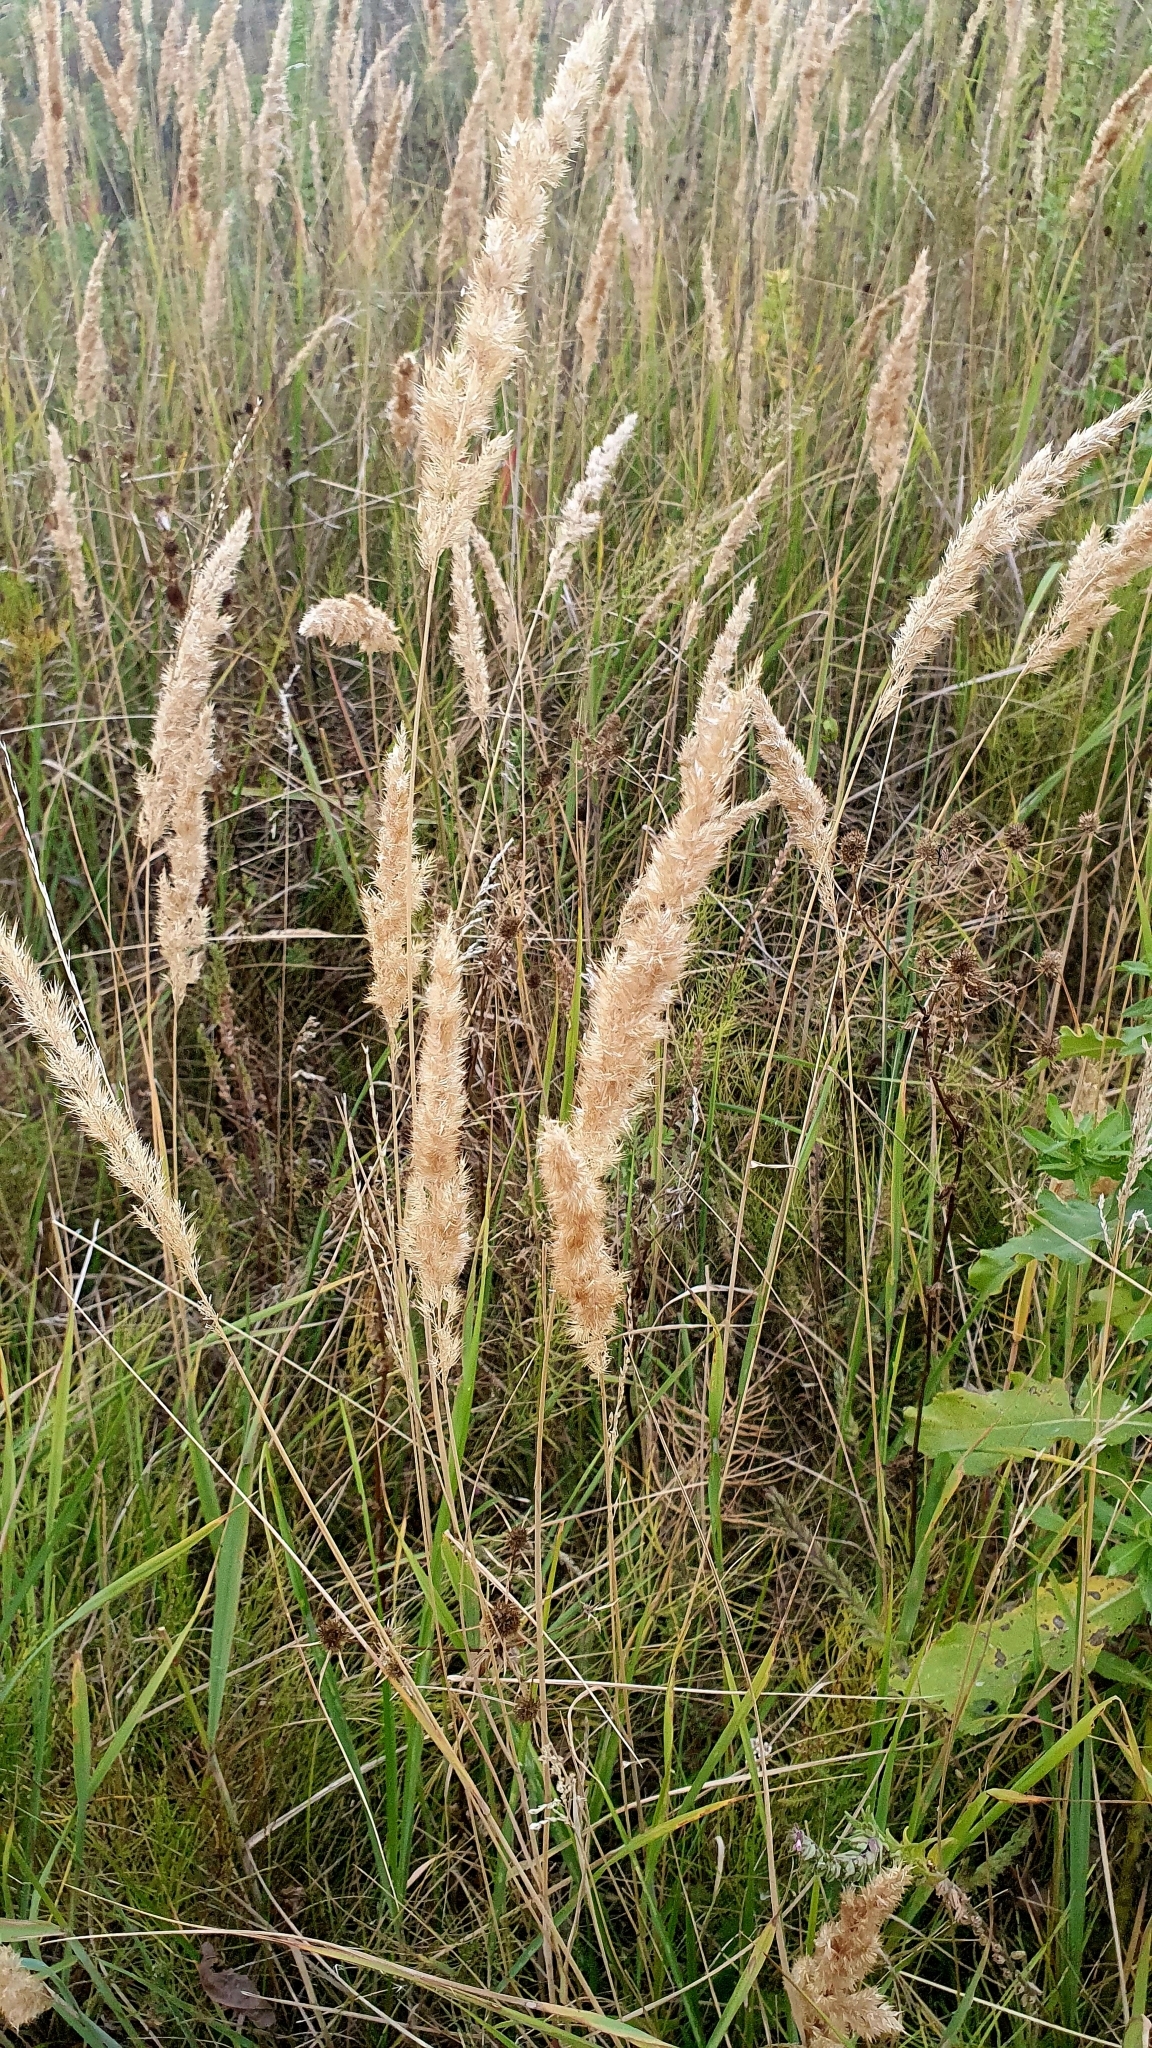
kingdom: Plantae
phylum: Tracheophyta
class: Liliopsida
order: Poales
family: Poaceae
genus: Calamagrostis
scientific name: Calamagrostis epigejos
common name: Wood small-reed
